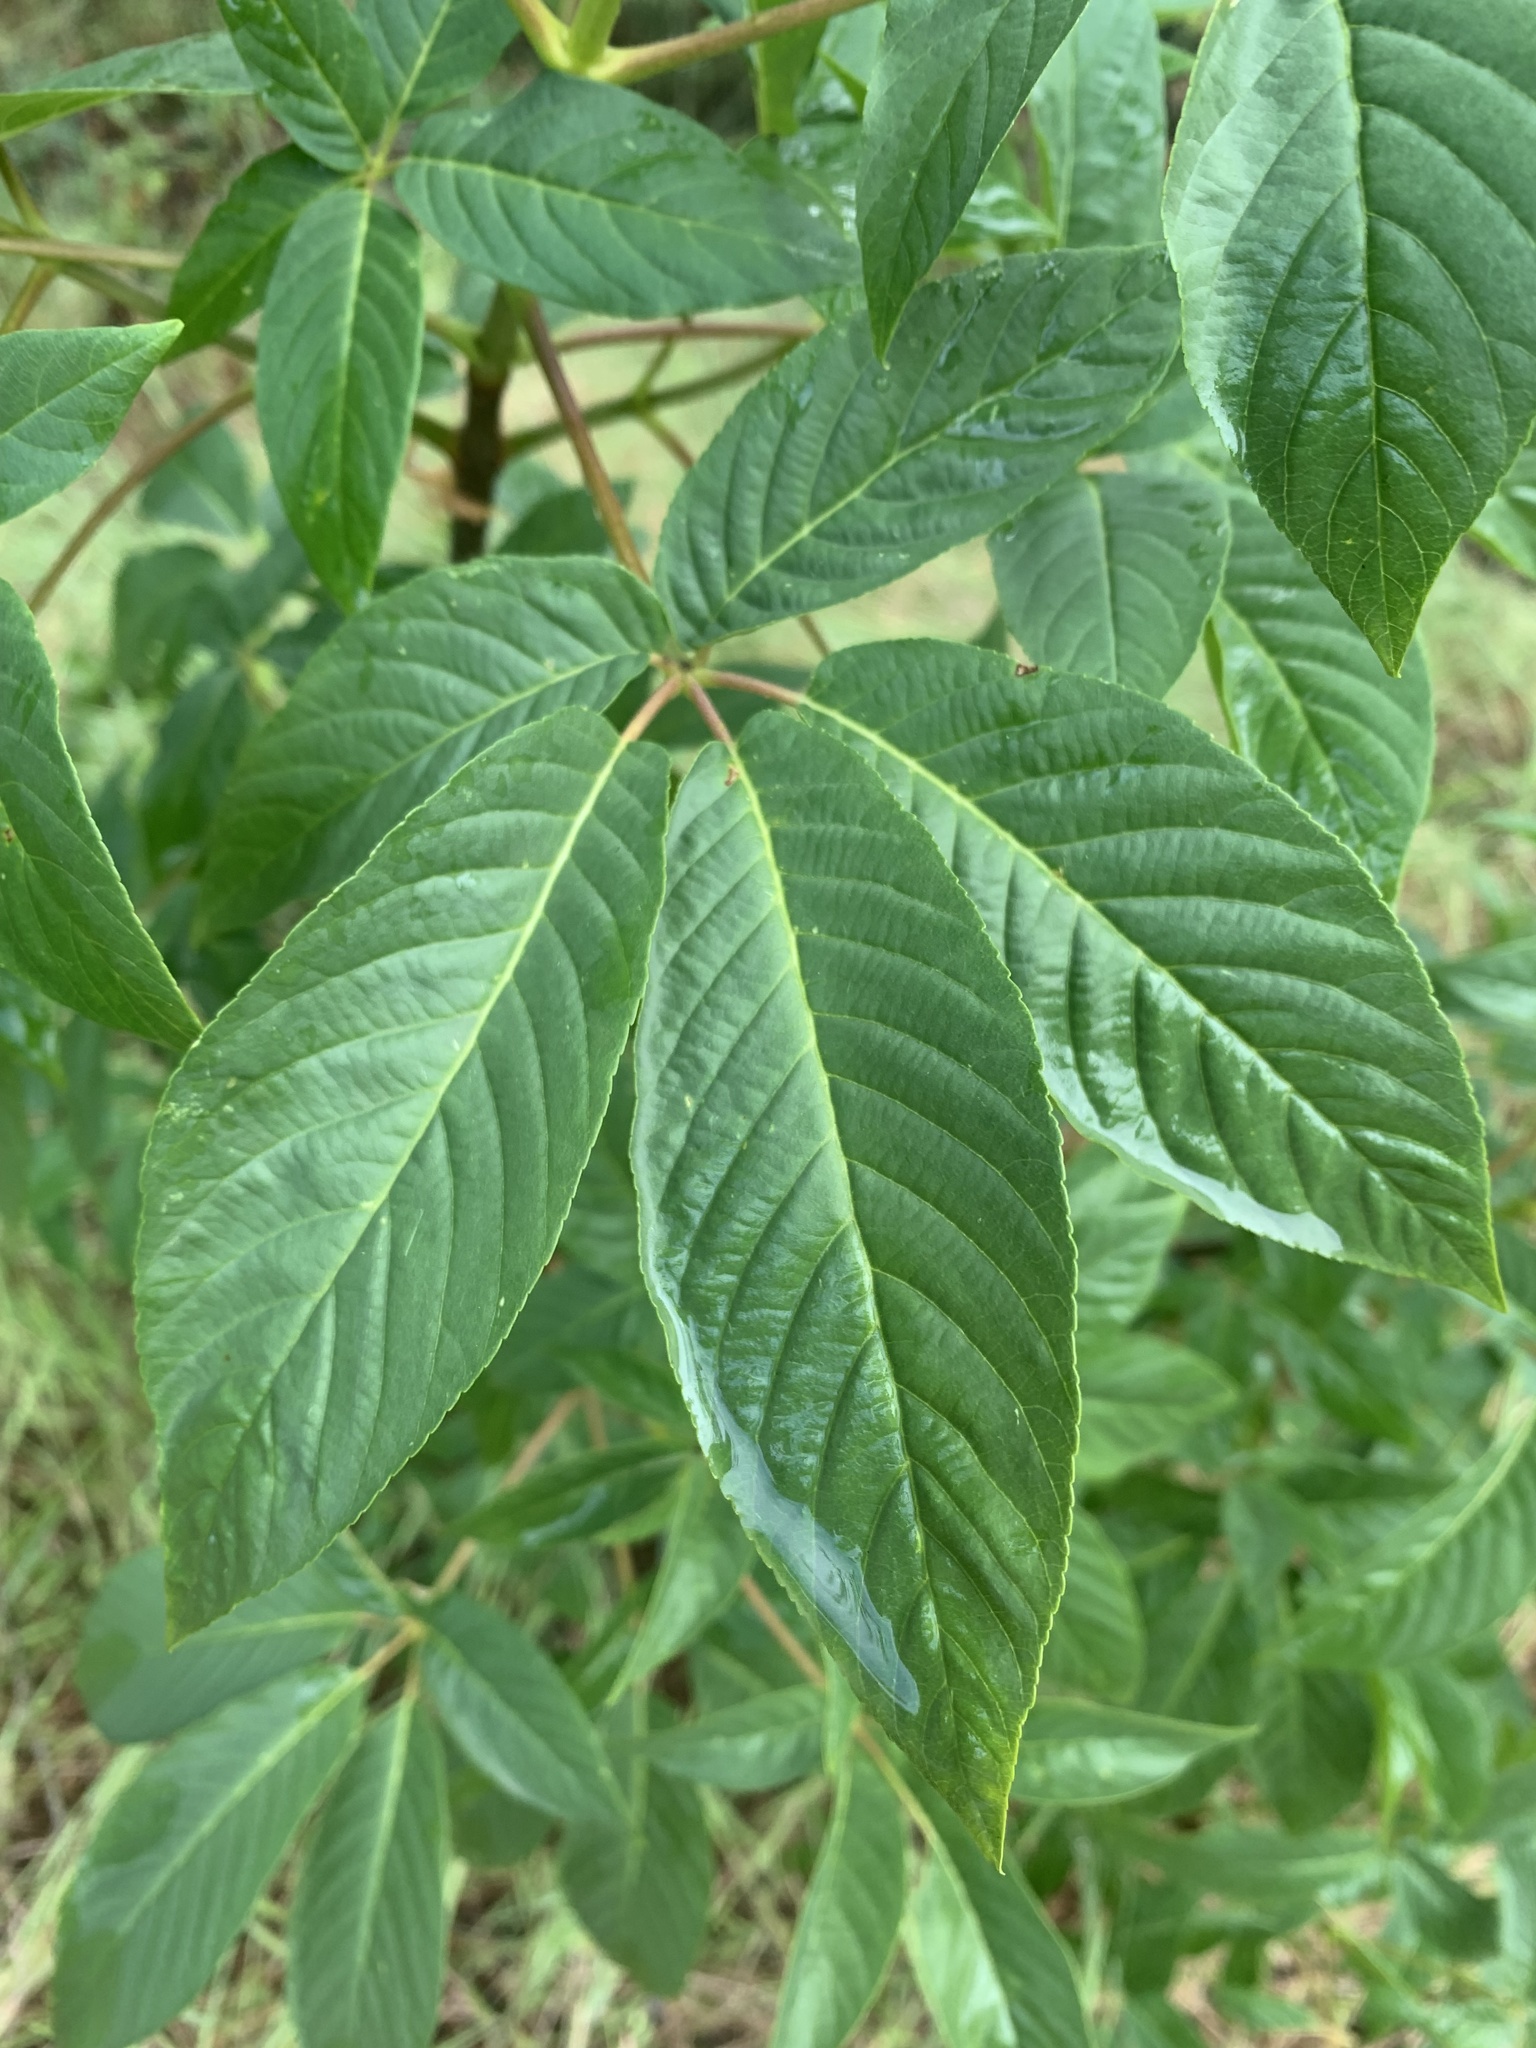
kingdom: Plantae
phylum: Tracheophyta
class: Magnoliopsida
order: Sapindales
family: Sapindaceae
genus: Aesculus
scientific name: Aesculus californica
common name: California buckeye
